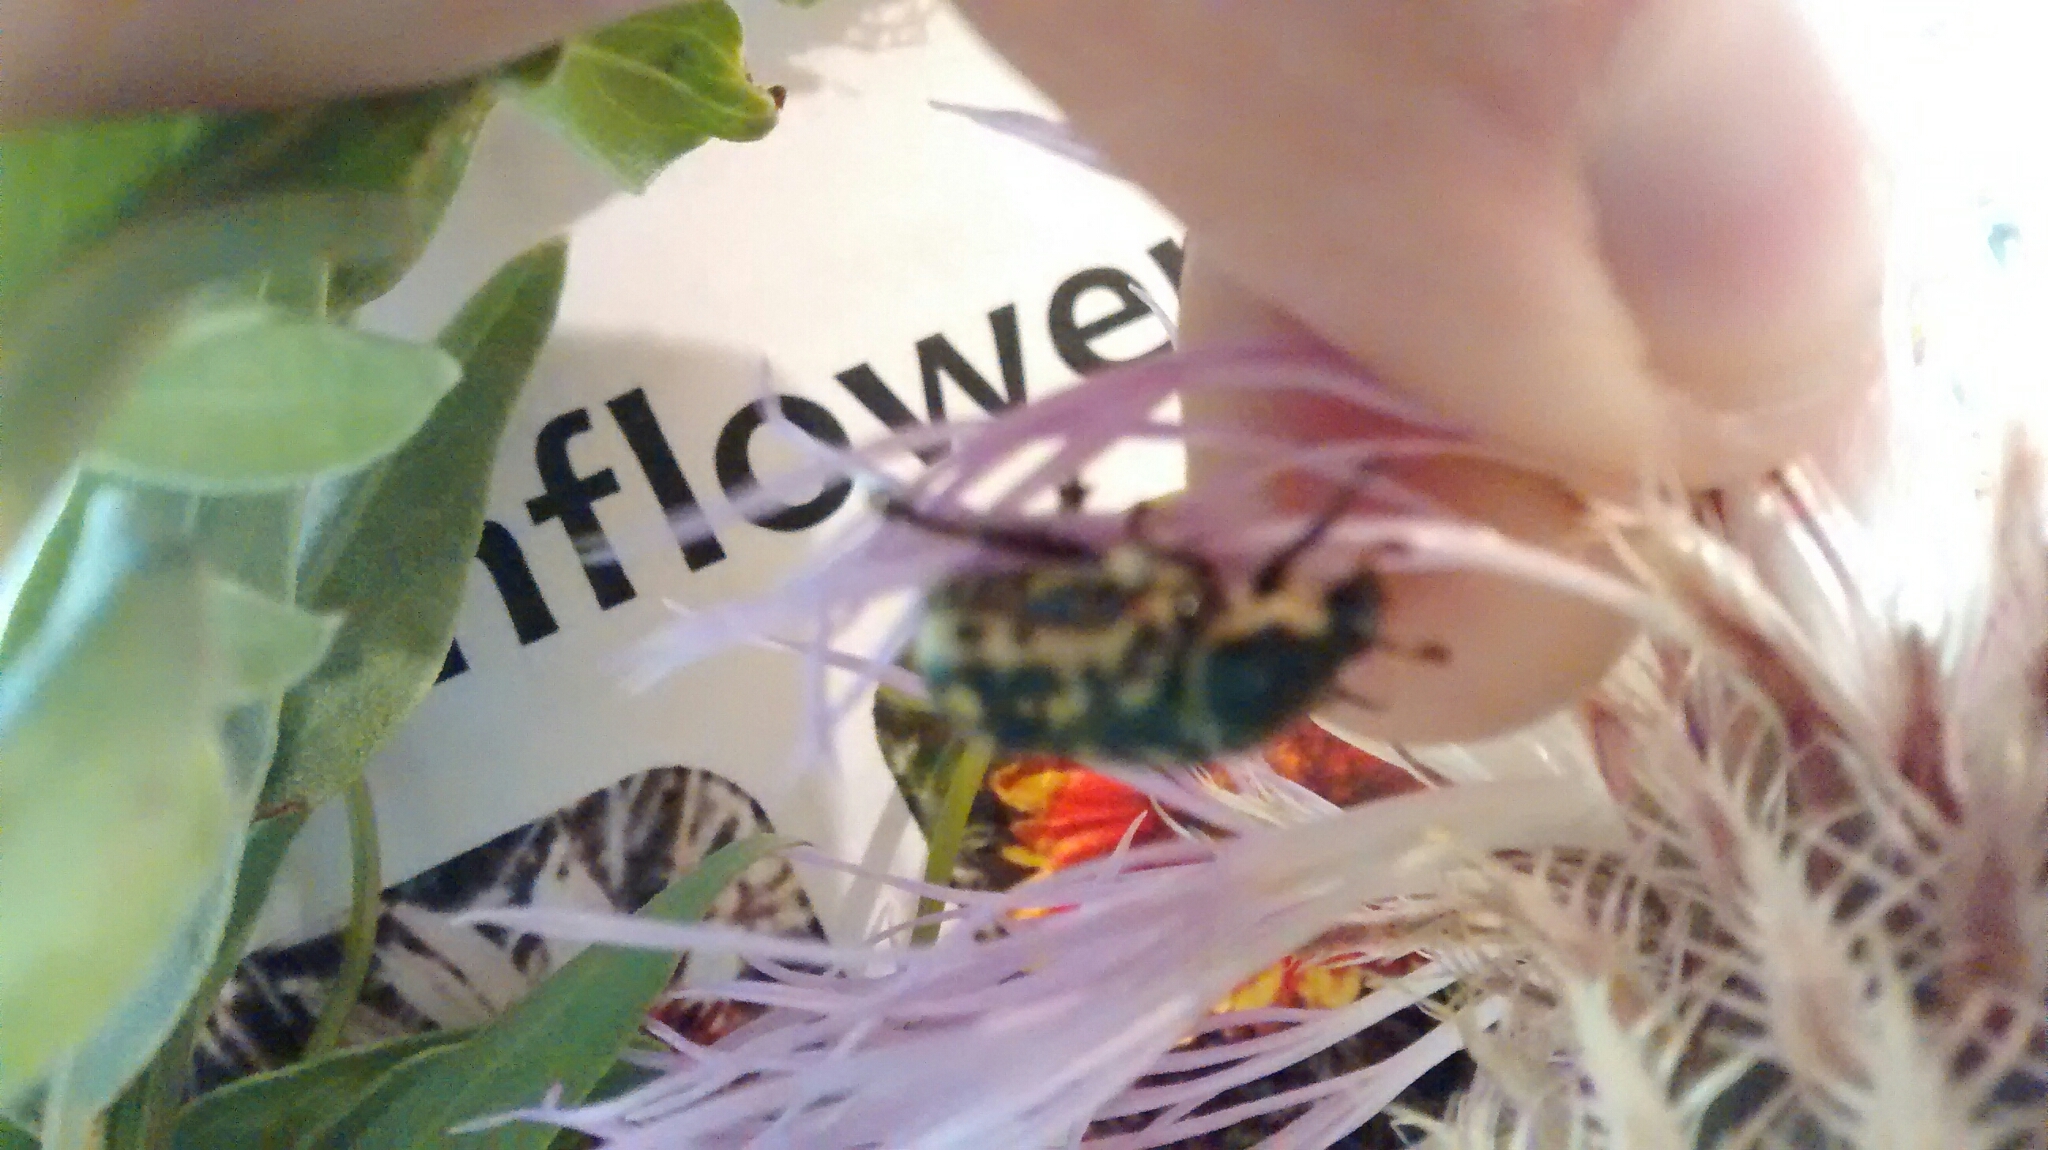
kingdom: Animalia
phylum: Arthropoda
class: Insecta
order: Coleoptera
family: Scarabaeidae
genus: Euphoria
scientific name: Euphoria kernii
